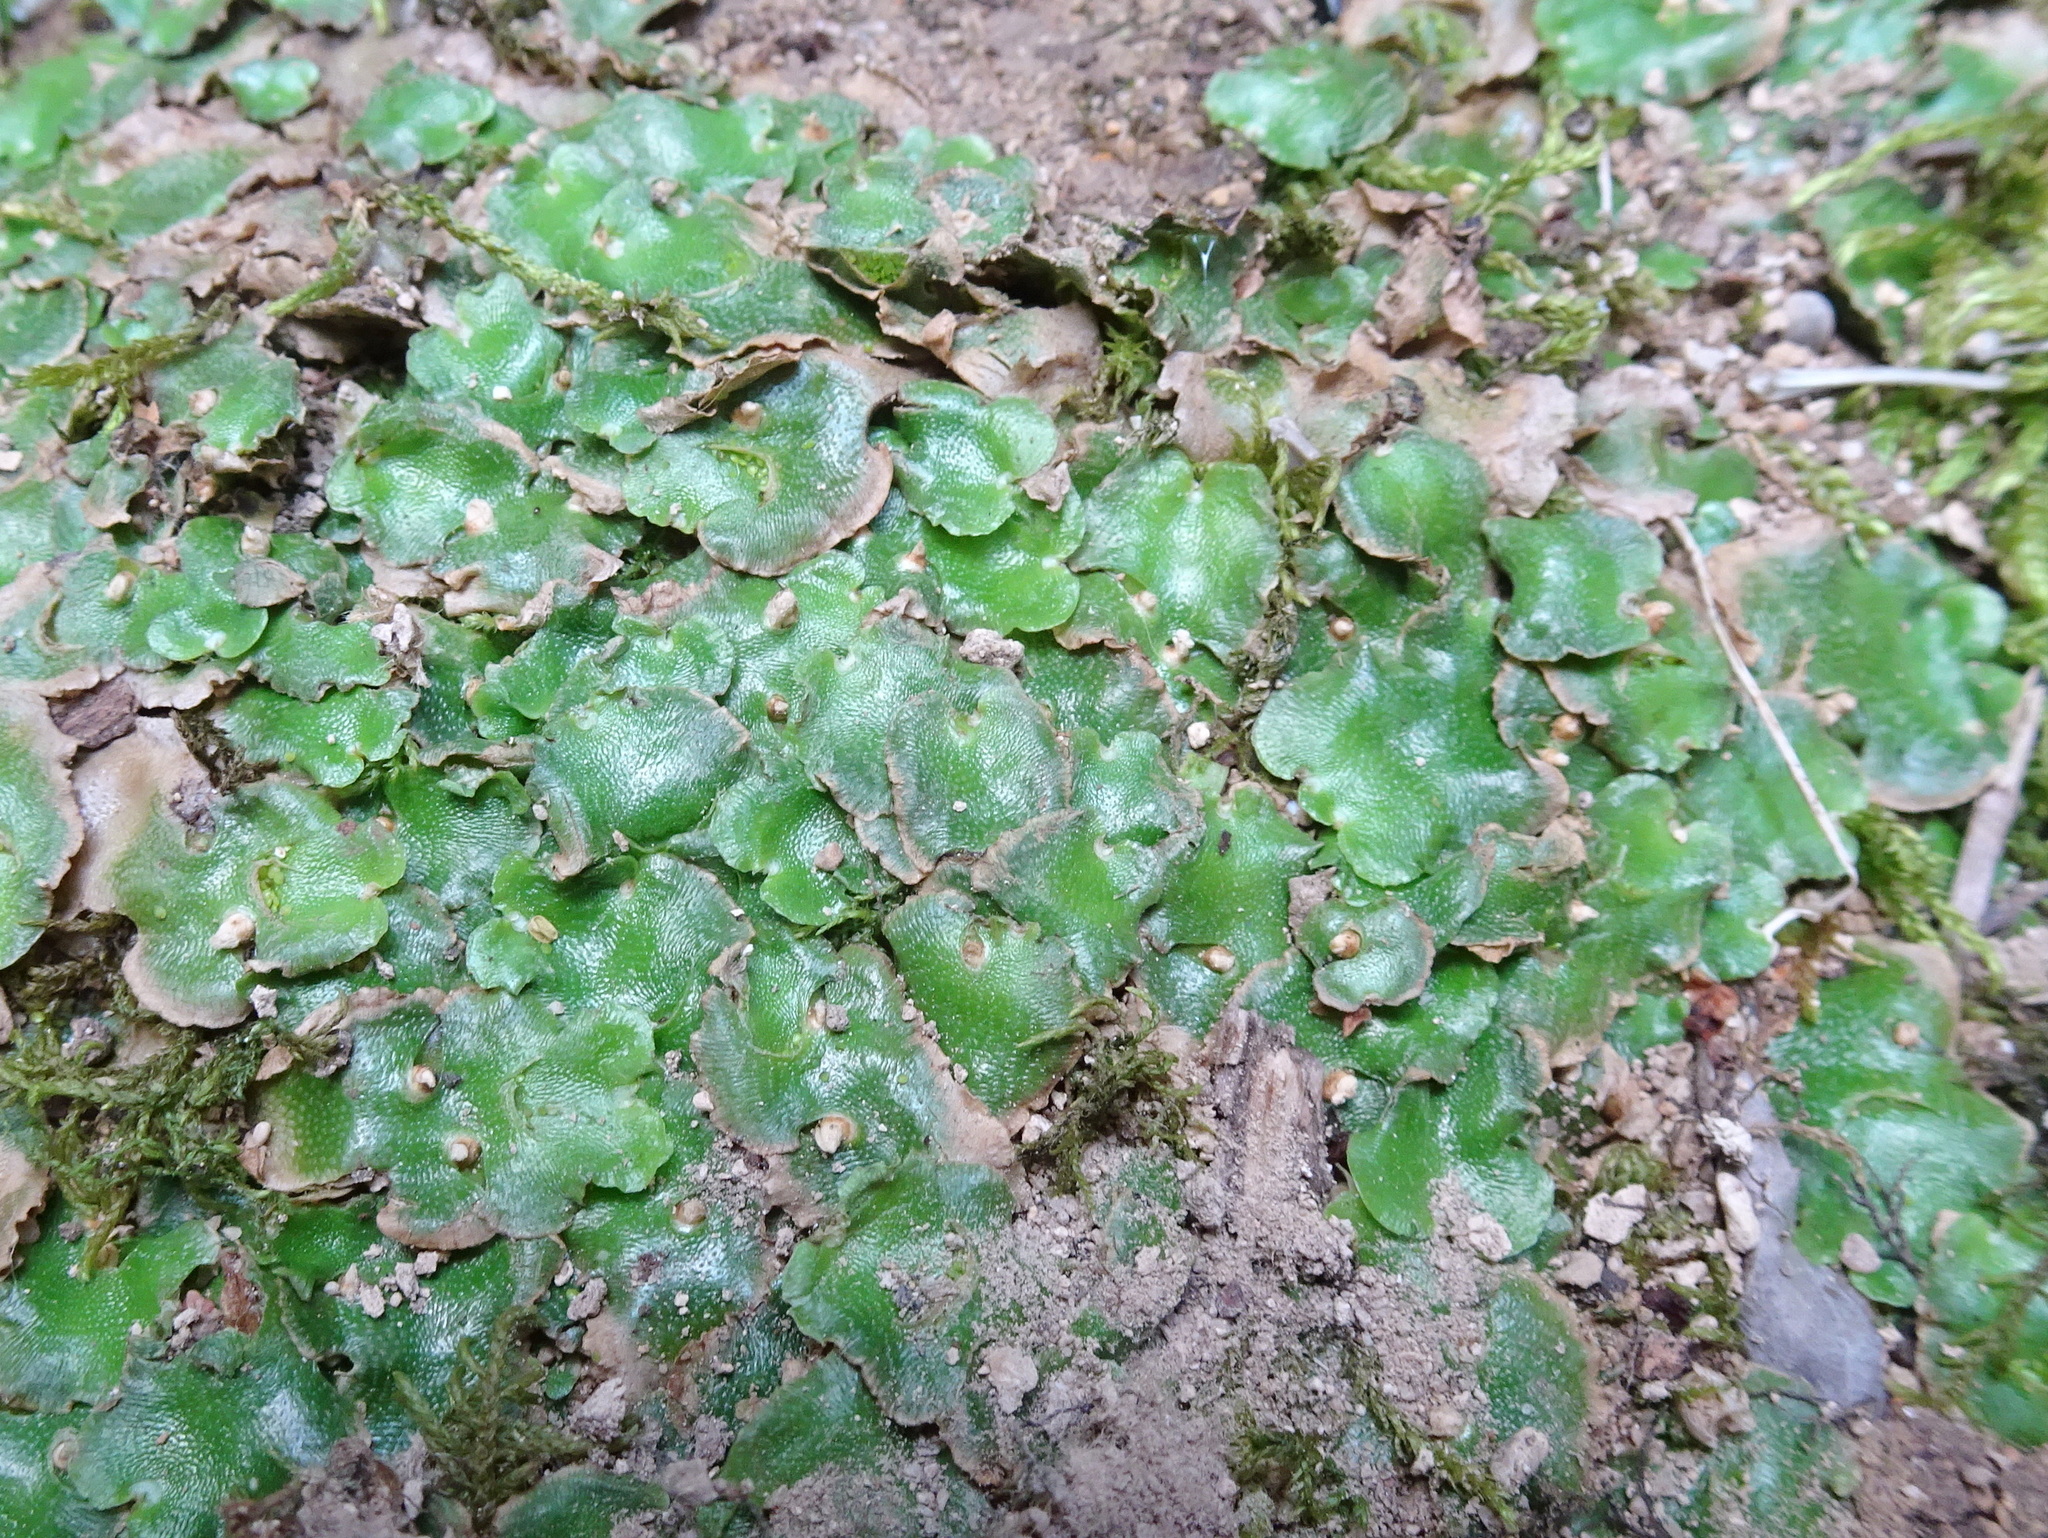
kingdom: Plantae
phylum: Marchantiophyta
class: Marchantiopsida
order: Lunulariales
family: Lunulariaceae
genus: Lunularia
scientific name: Lunularia cruciata
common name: Crescent-cup liverwort
